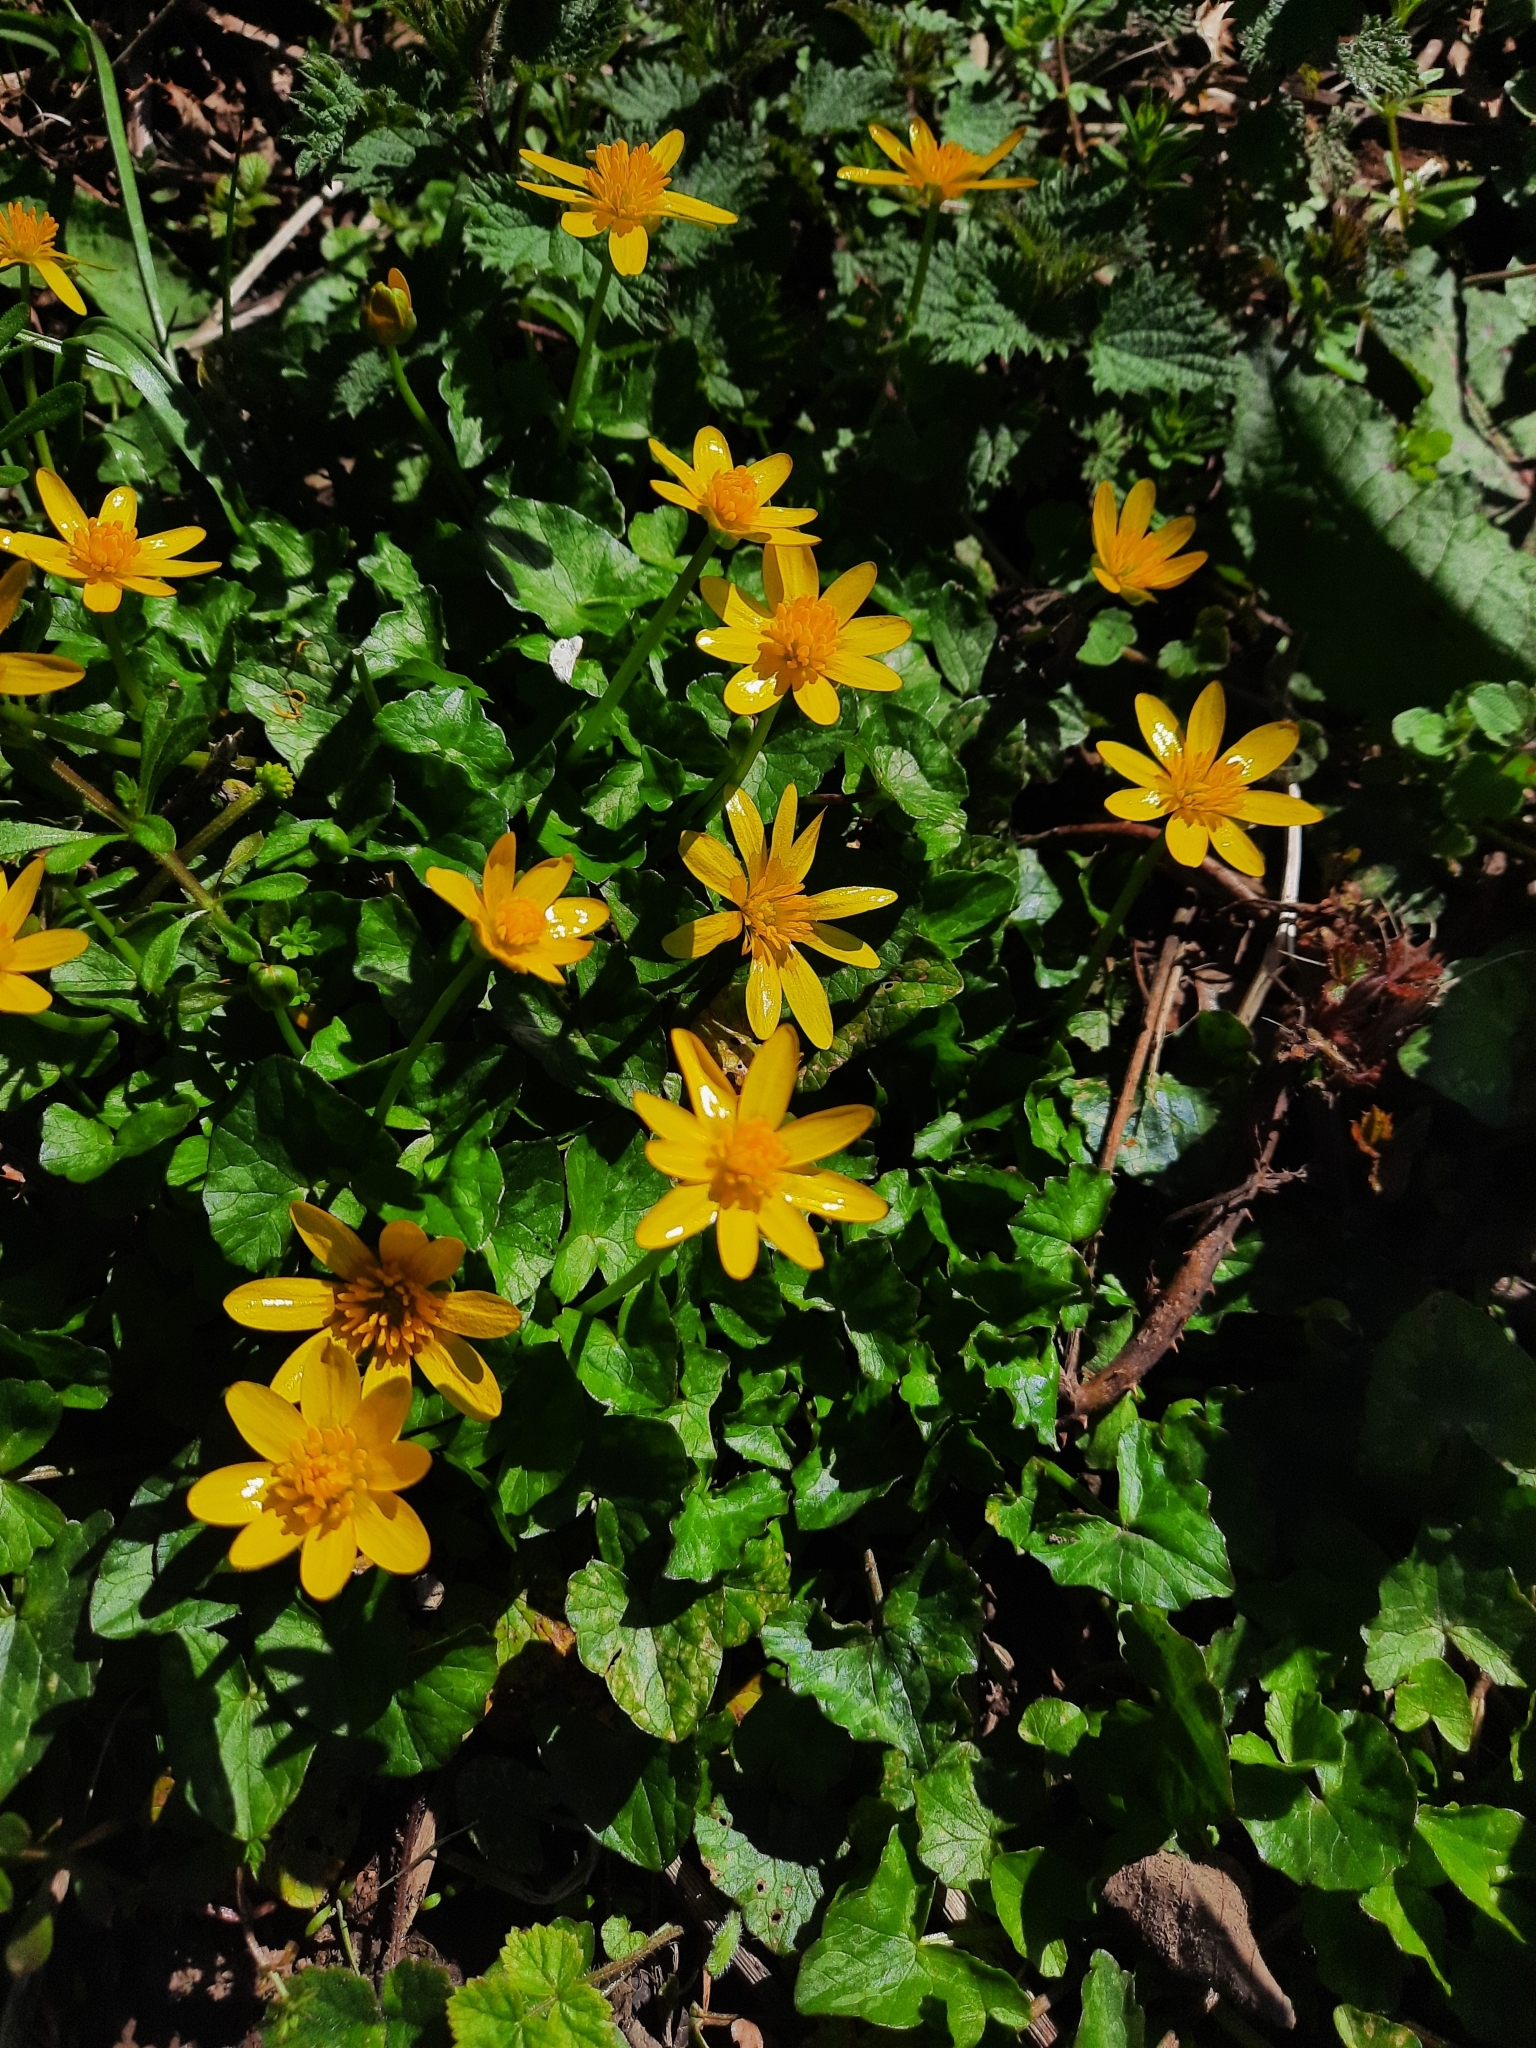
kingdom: Plantae
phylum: Tracheophyta
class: Magnoliopsida
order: Ranunculales
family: Ranunculaceae
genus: Ficaria
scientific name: Ficaria verna
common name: Lesser celandine
